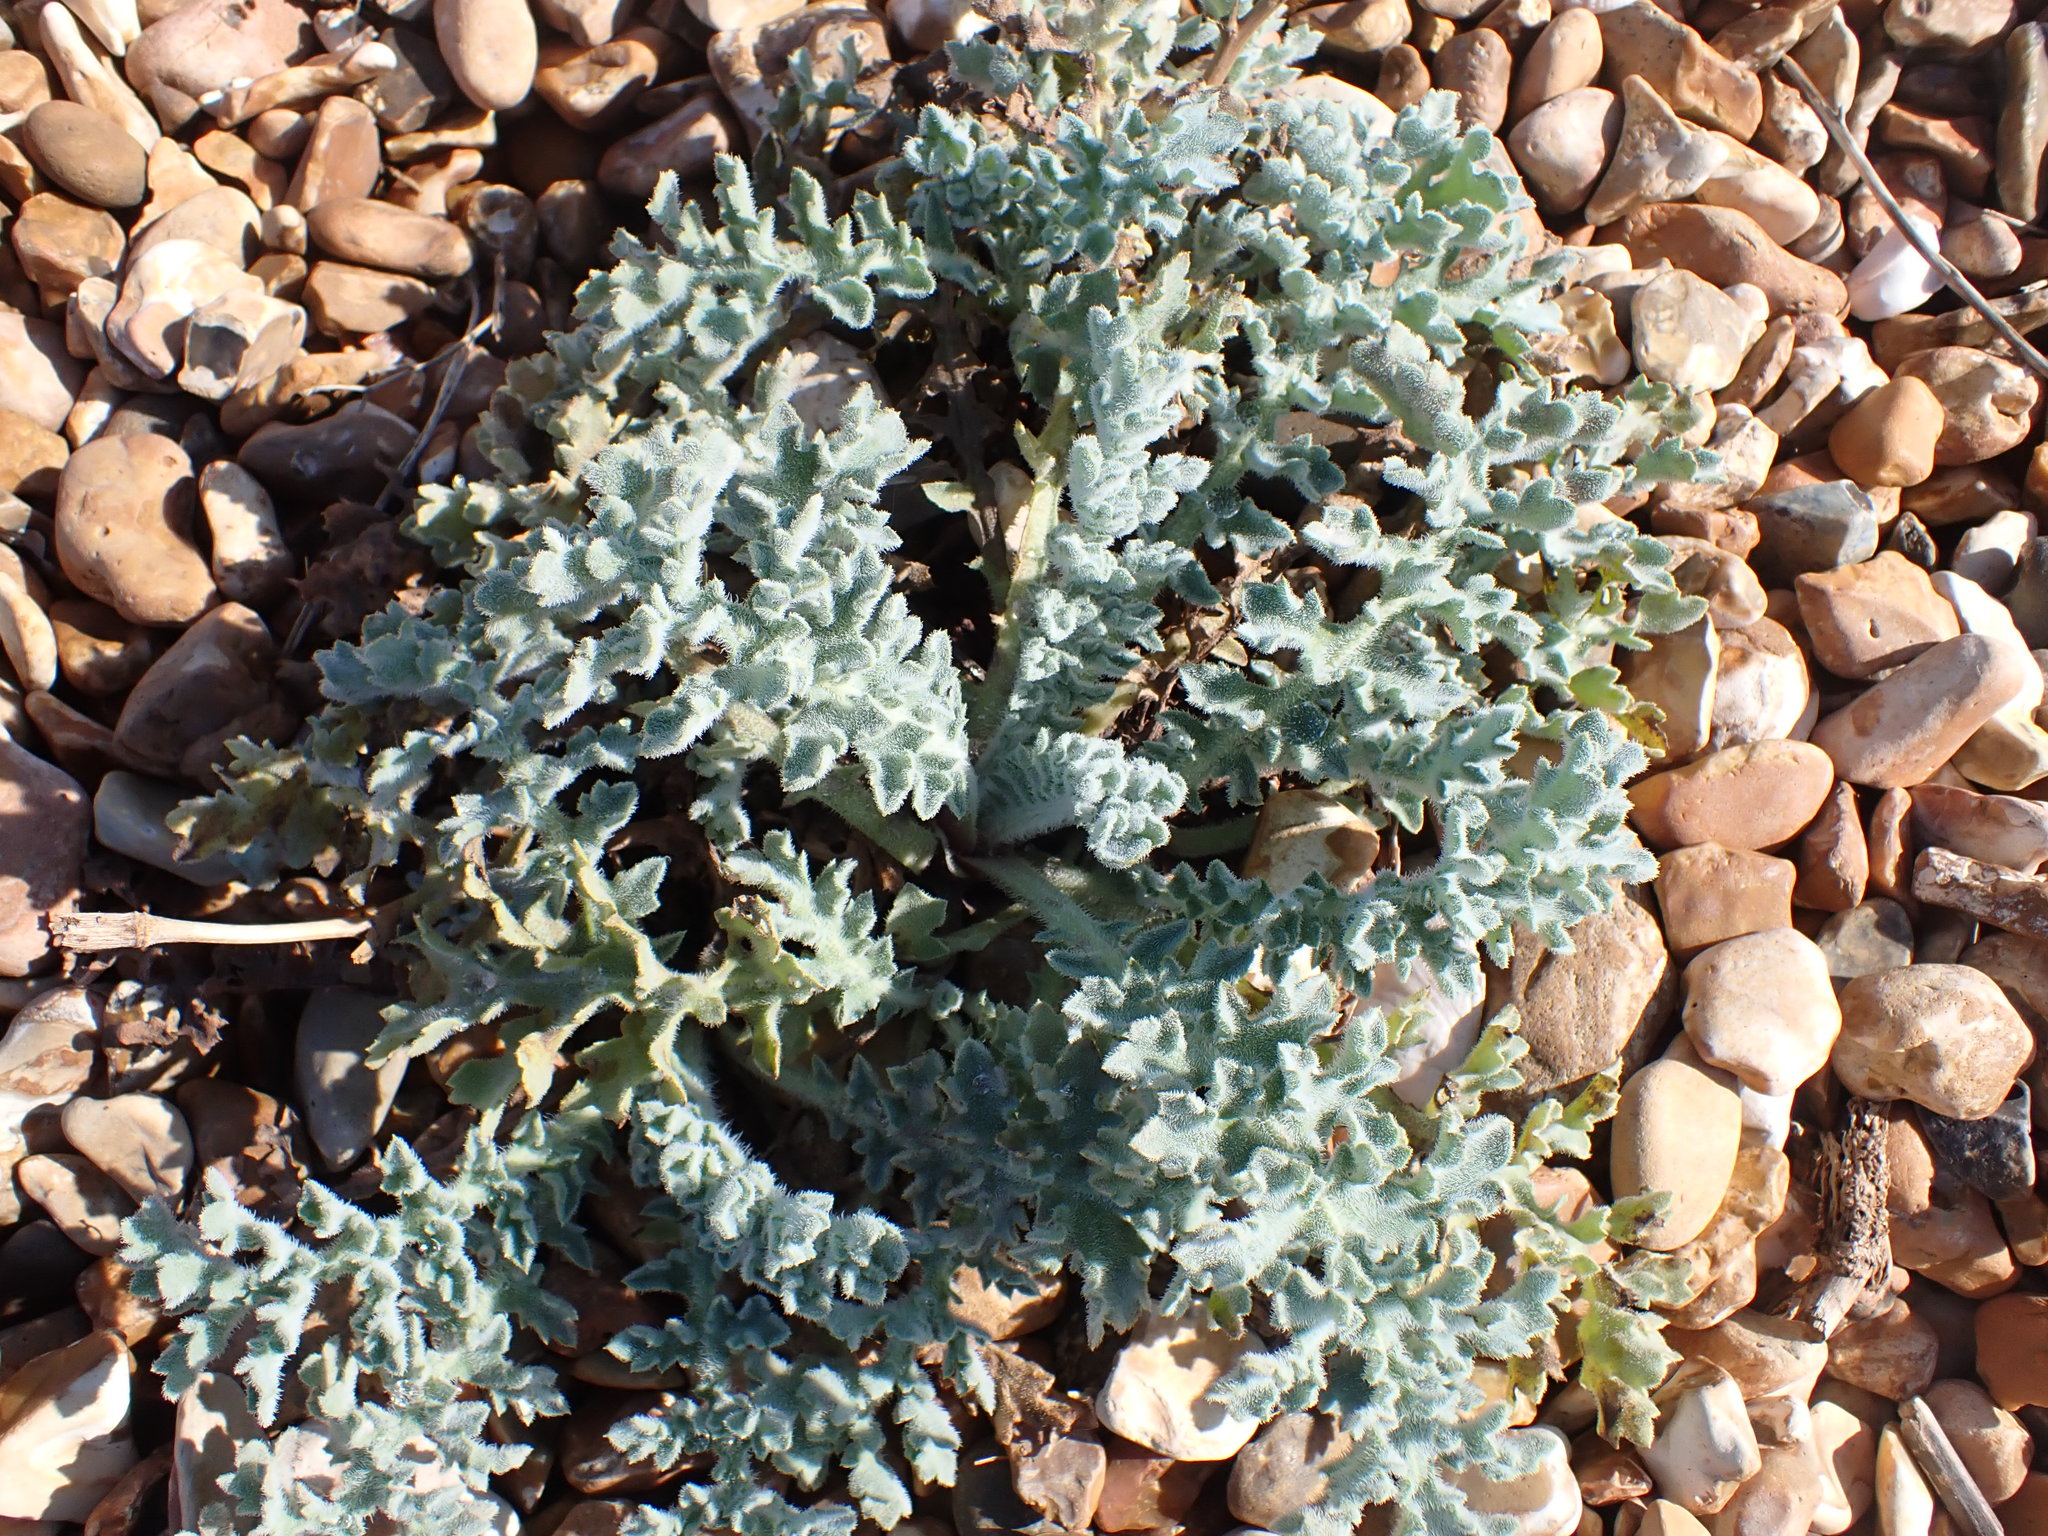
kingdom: Plantae
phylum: Tracheophyta
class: Magnoliopsida
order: Ranunculales
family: Papaveraceae
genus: Glaucium
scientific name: Glaucium flavum
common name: Yellow horned-poppy
